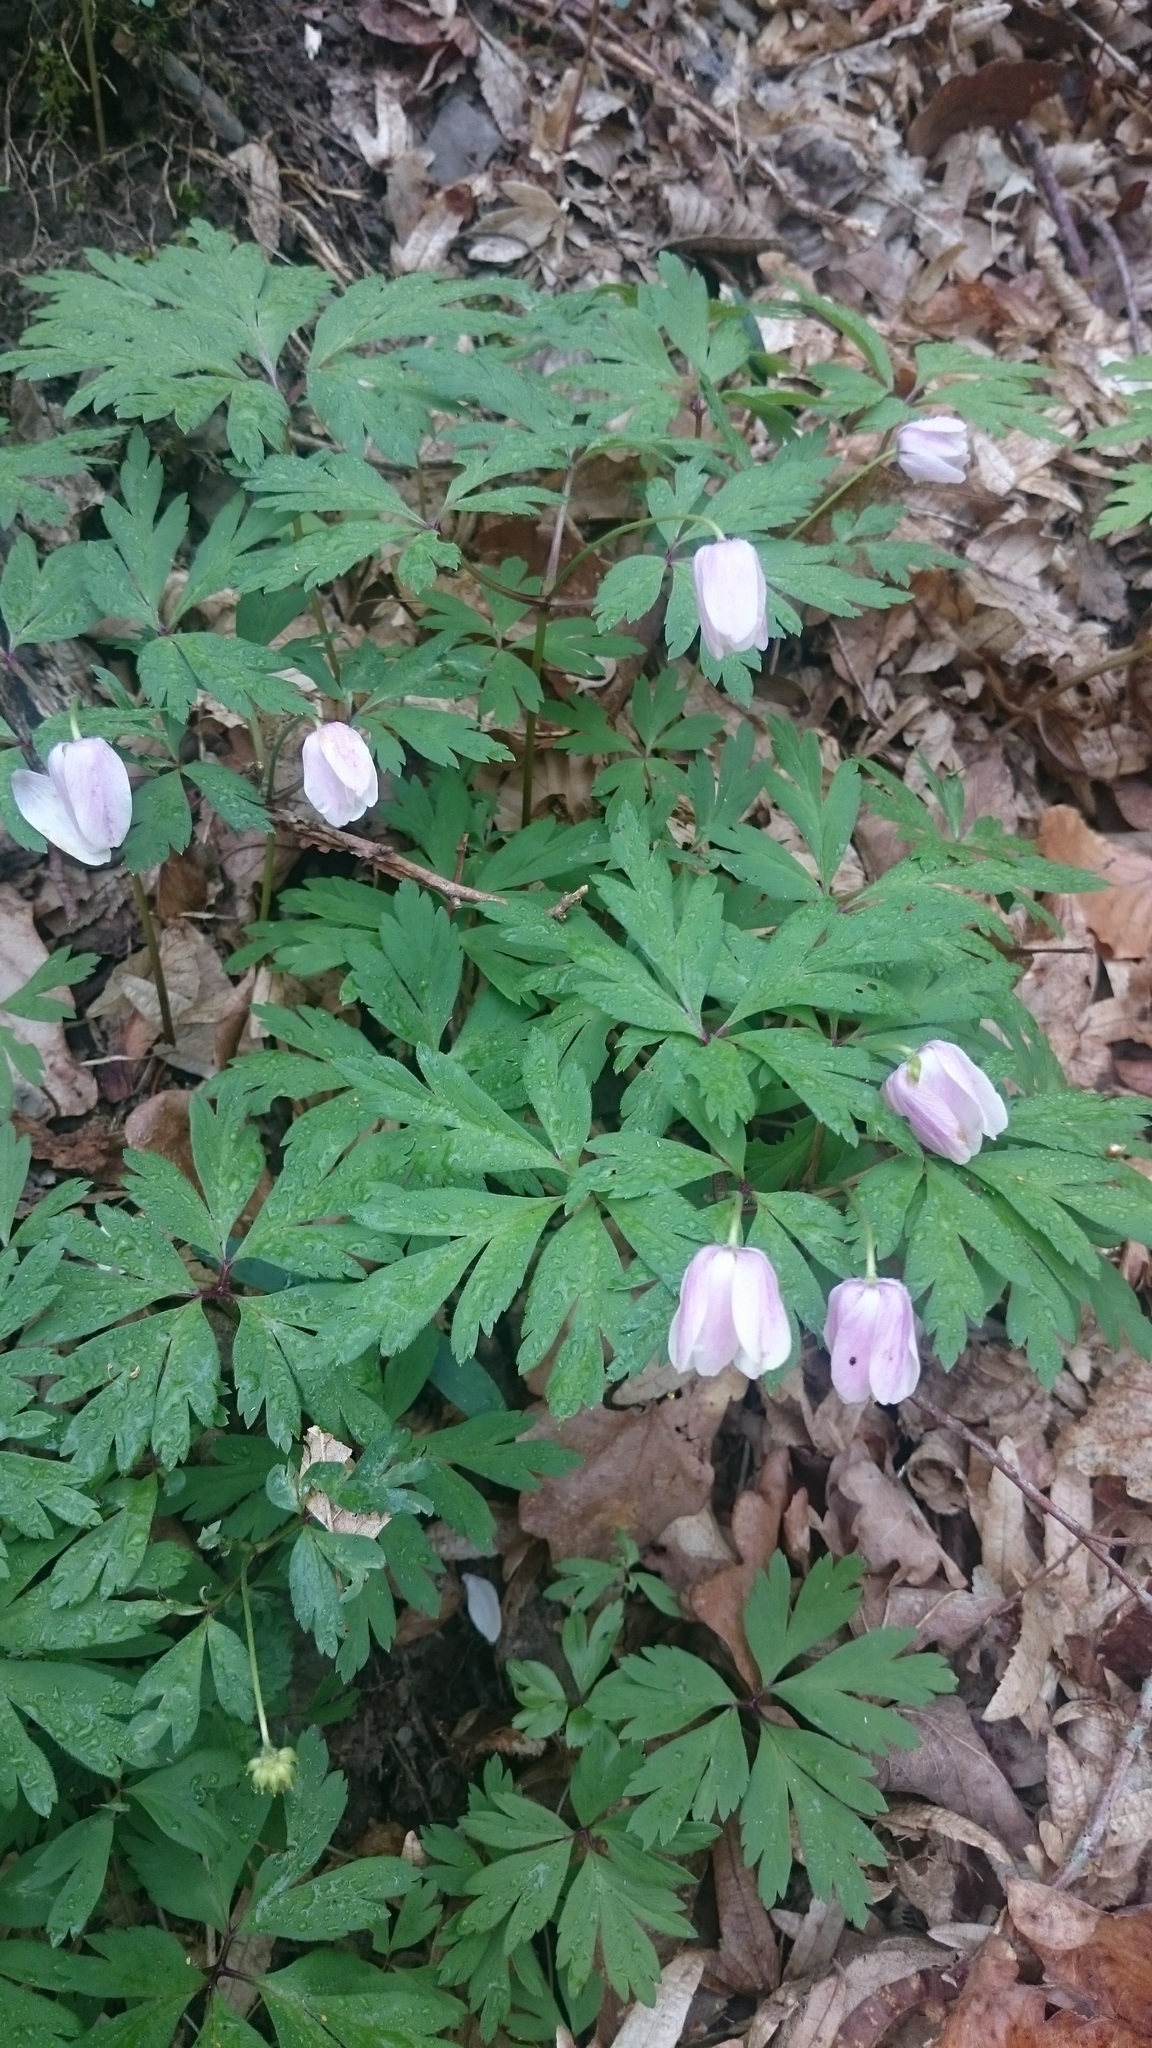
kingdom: Plantae
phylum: Tracheophyta
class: Magnoliopsida
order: Ranunculales
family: Ranunculaceae
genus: Anemone
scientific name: Anemone nemorosa
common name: Wood anemone
